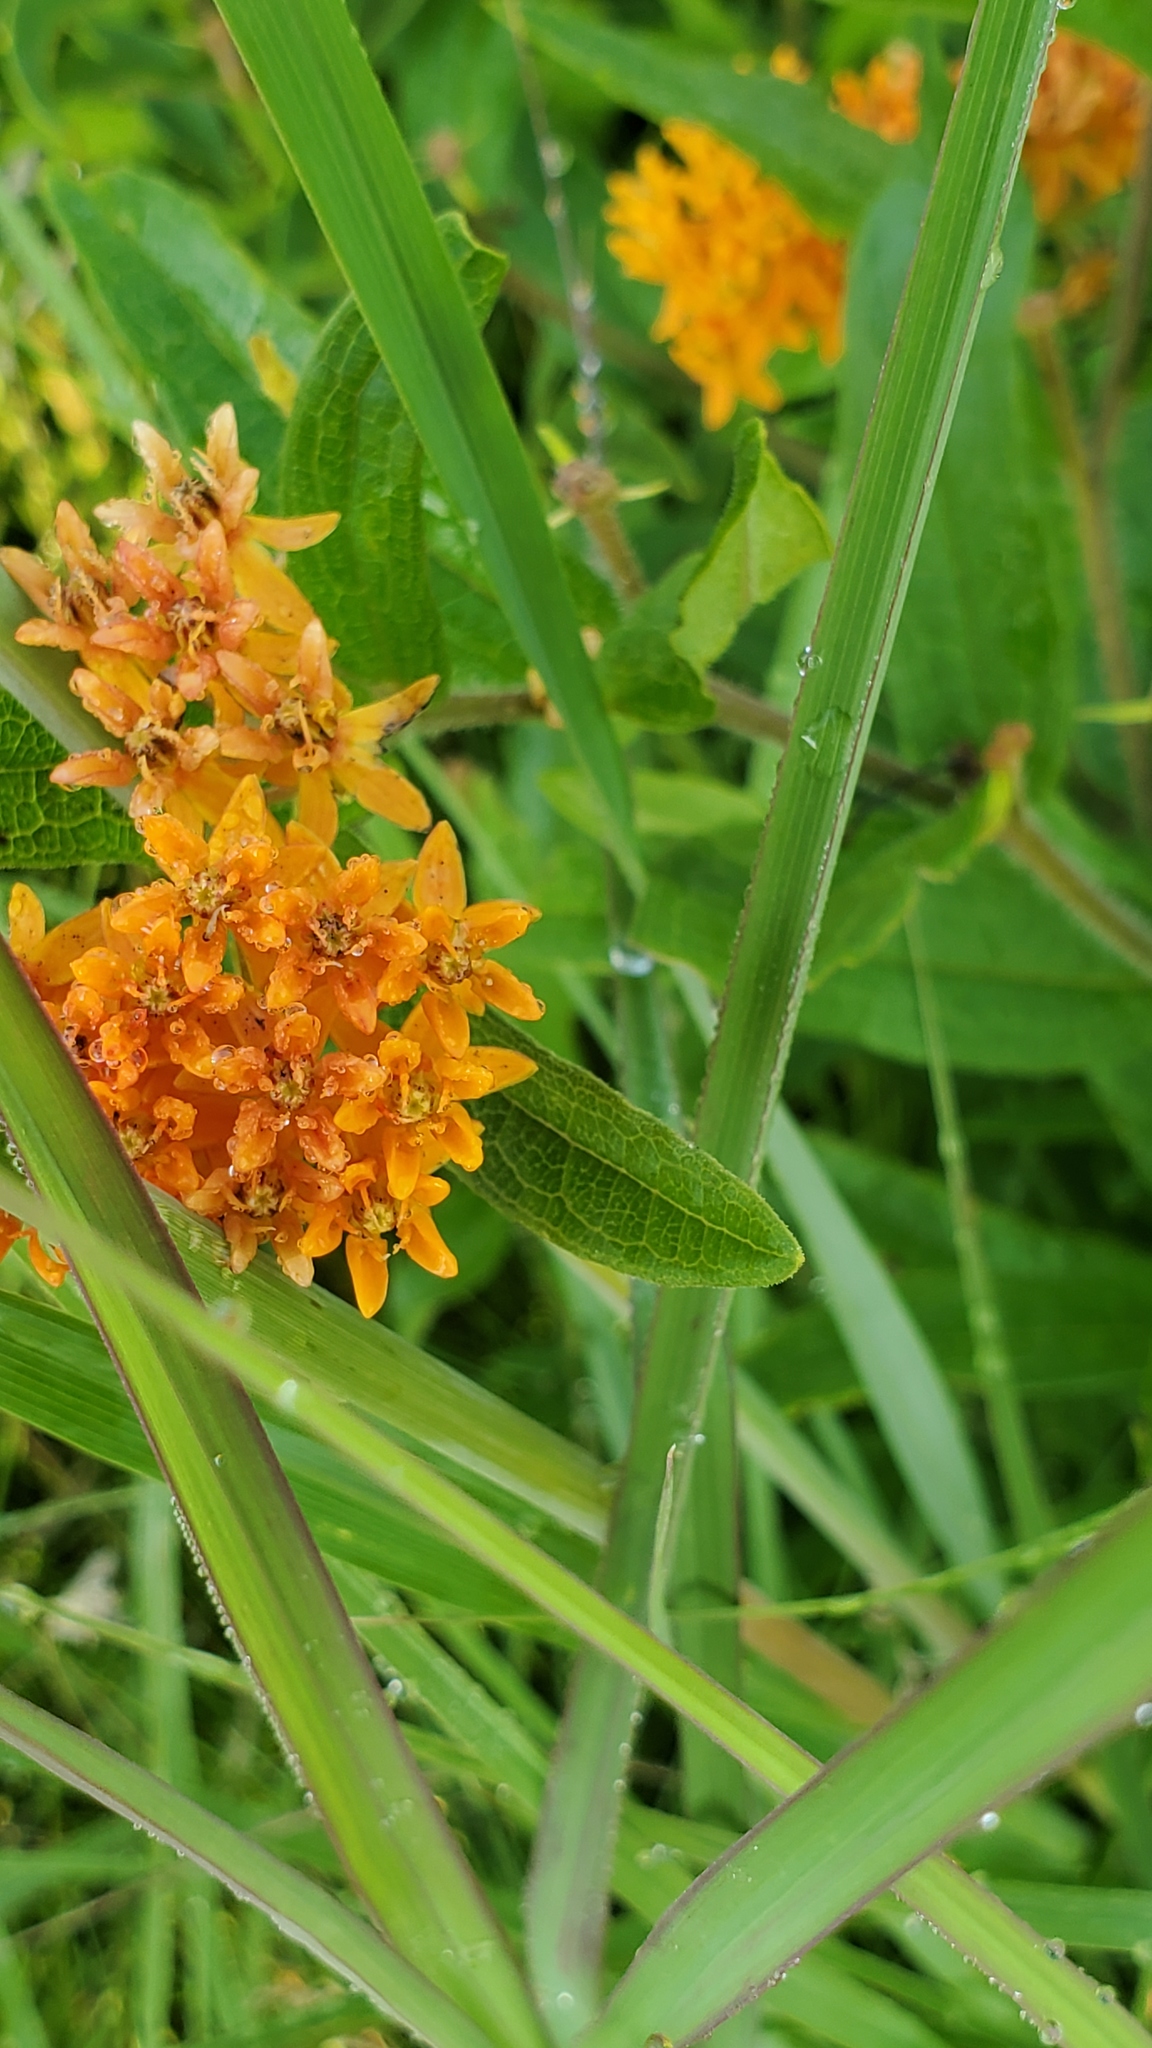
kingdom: Plantae
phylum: Tracheophyta
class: Magnoliopsida
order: Gentianales
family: Apocynaceae
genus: Asclepias
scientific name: Asclepias tuberosa
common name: Butterfly milkweed
